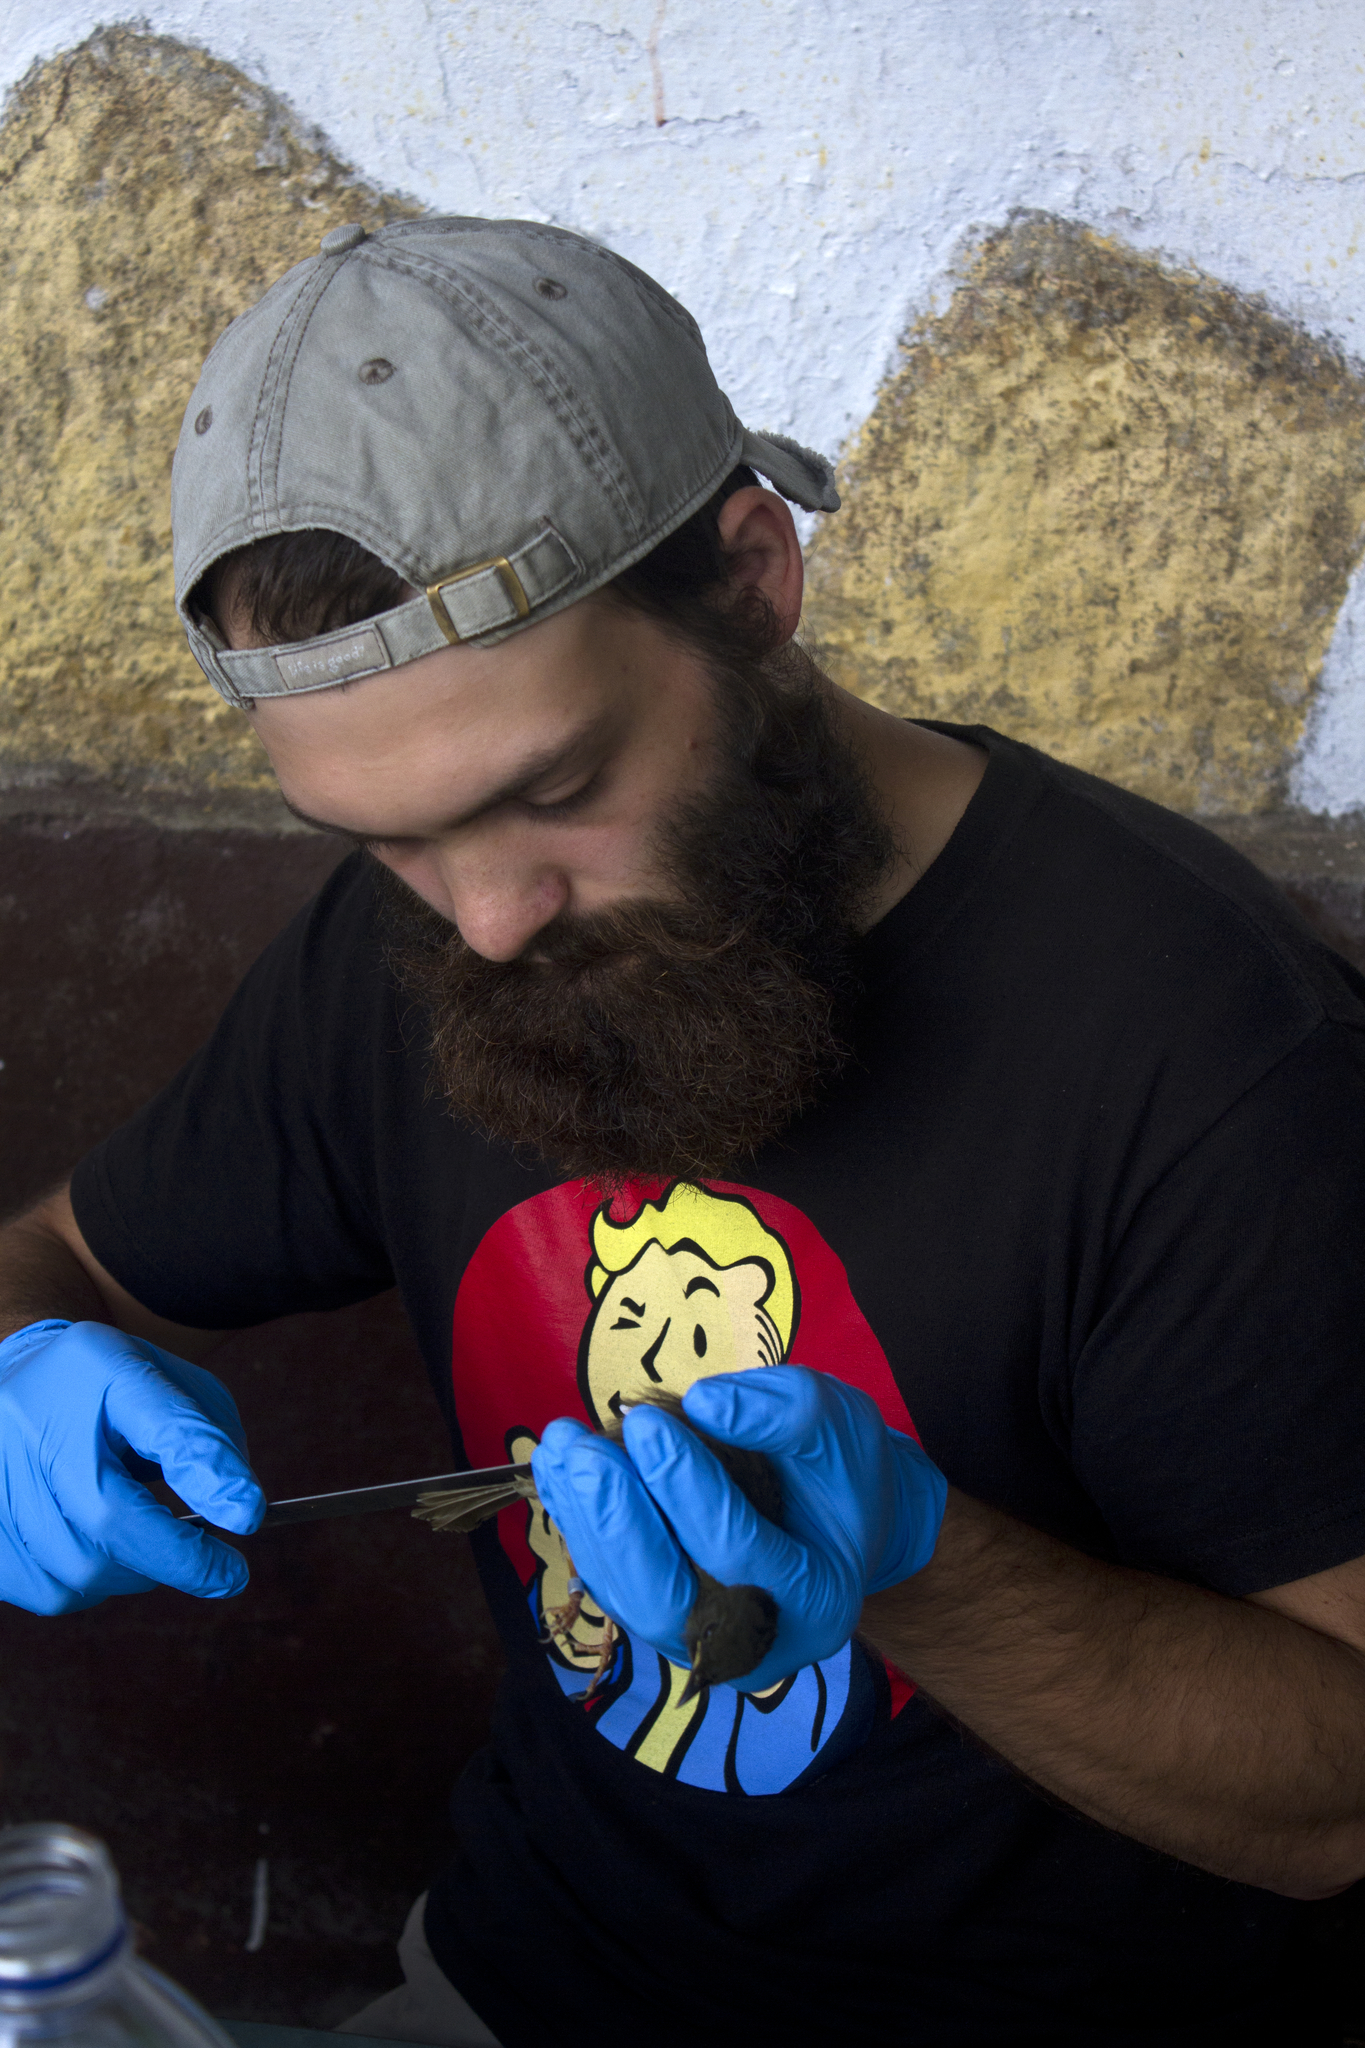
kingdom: Animalia
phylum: Chordata
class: Aves
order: Passeriformes
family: Pycnonotidae
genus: Eurillas
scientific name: Eurillas latirostris
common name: Yellow-whiskered greenbul
